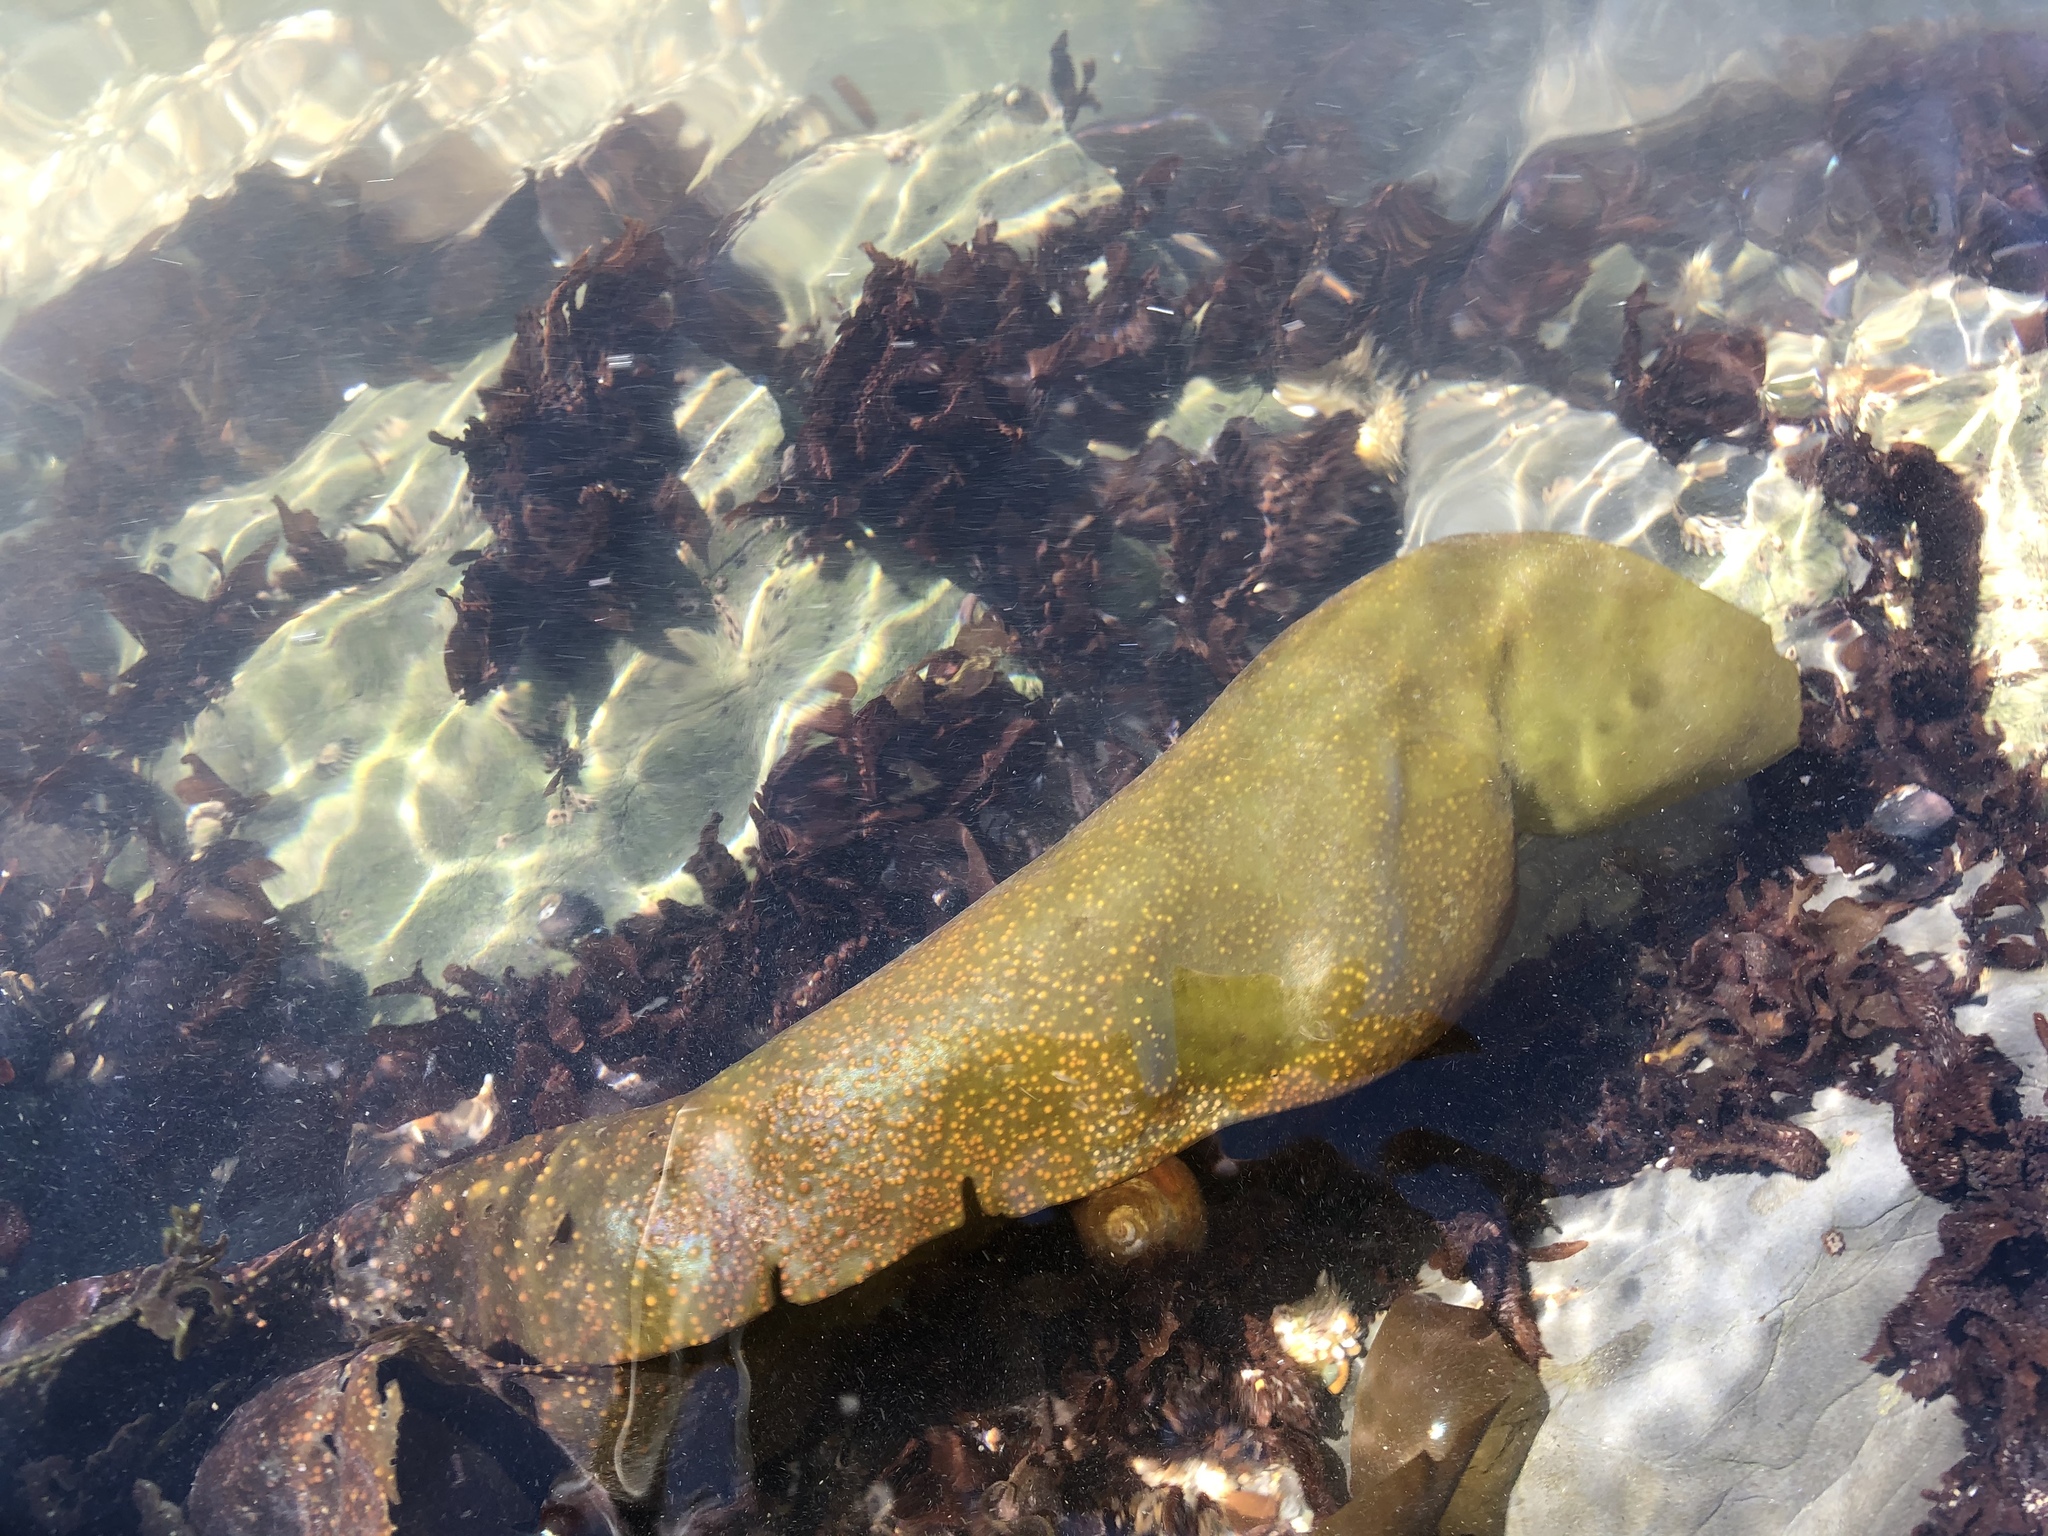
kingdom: Plantae
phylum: Rhodophyta
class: Florideophyceae
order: Gigartinales
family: Gigartinaceae
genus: Mazzaella
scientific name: Mazzaella splendens
